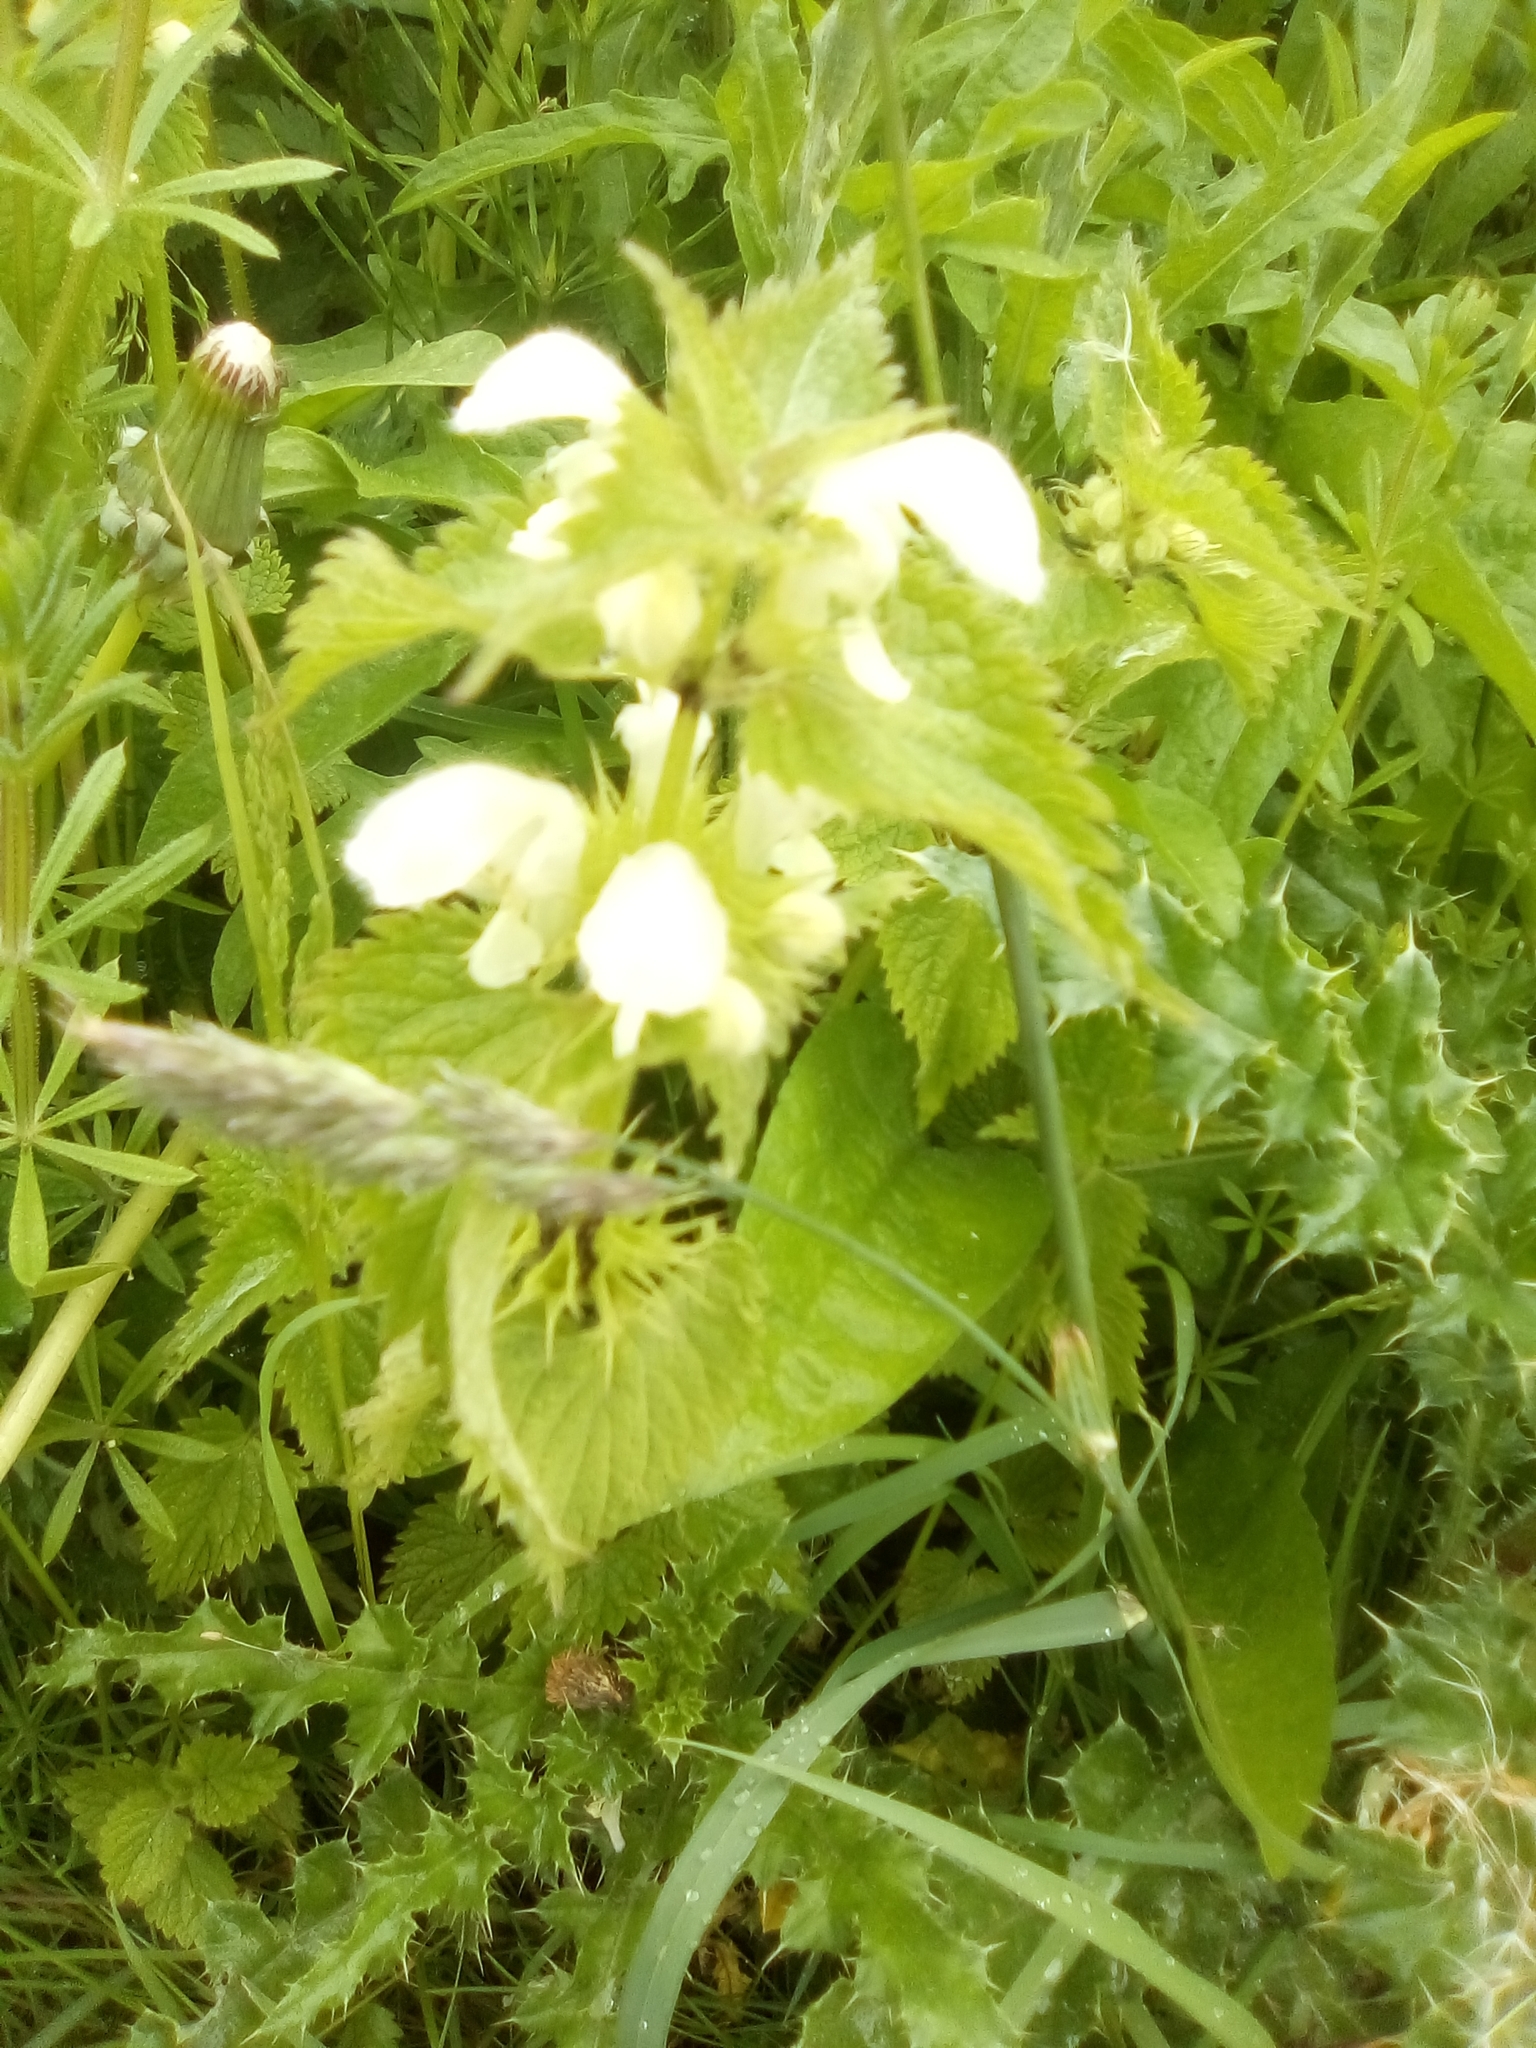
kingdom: Plantae
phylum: Tracheophyta
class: Magnoliopsida
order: Lamiales
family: Lamiaceae
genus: Lamium
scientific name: Lamium album
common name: White dead-nettle
